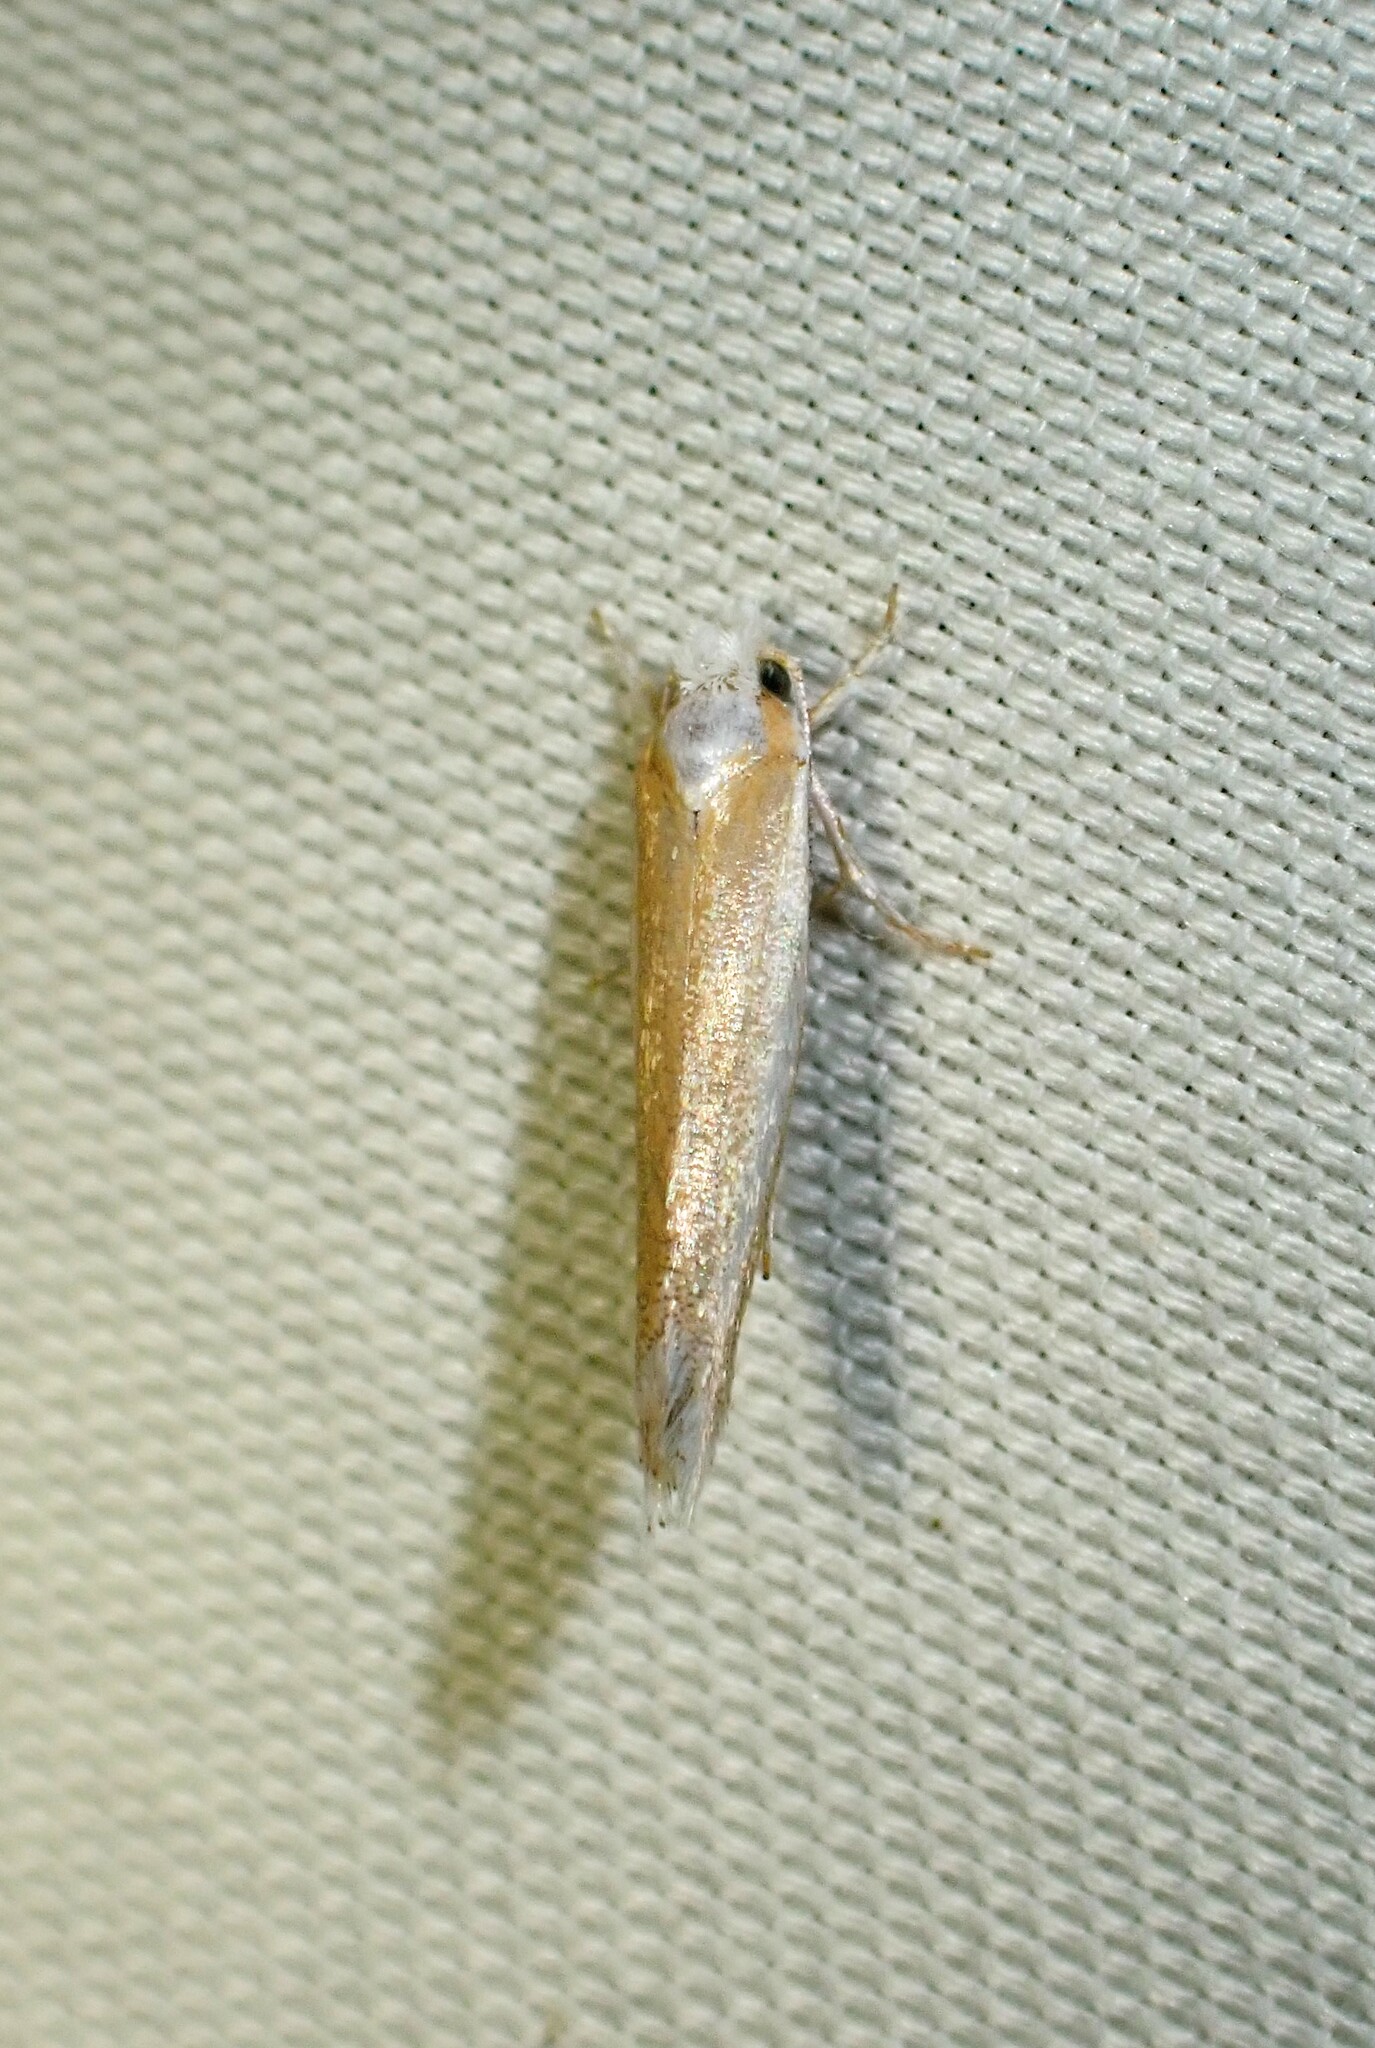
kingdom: Animalia
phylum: Arthropoda
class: Insecta
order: Lepidoptera
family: Yponomeutidae
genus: Zelleria
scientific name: Zelleria haimbachi
